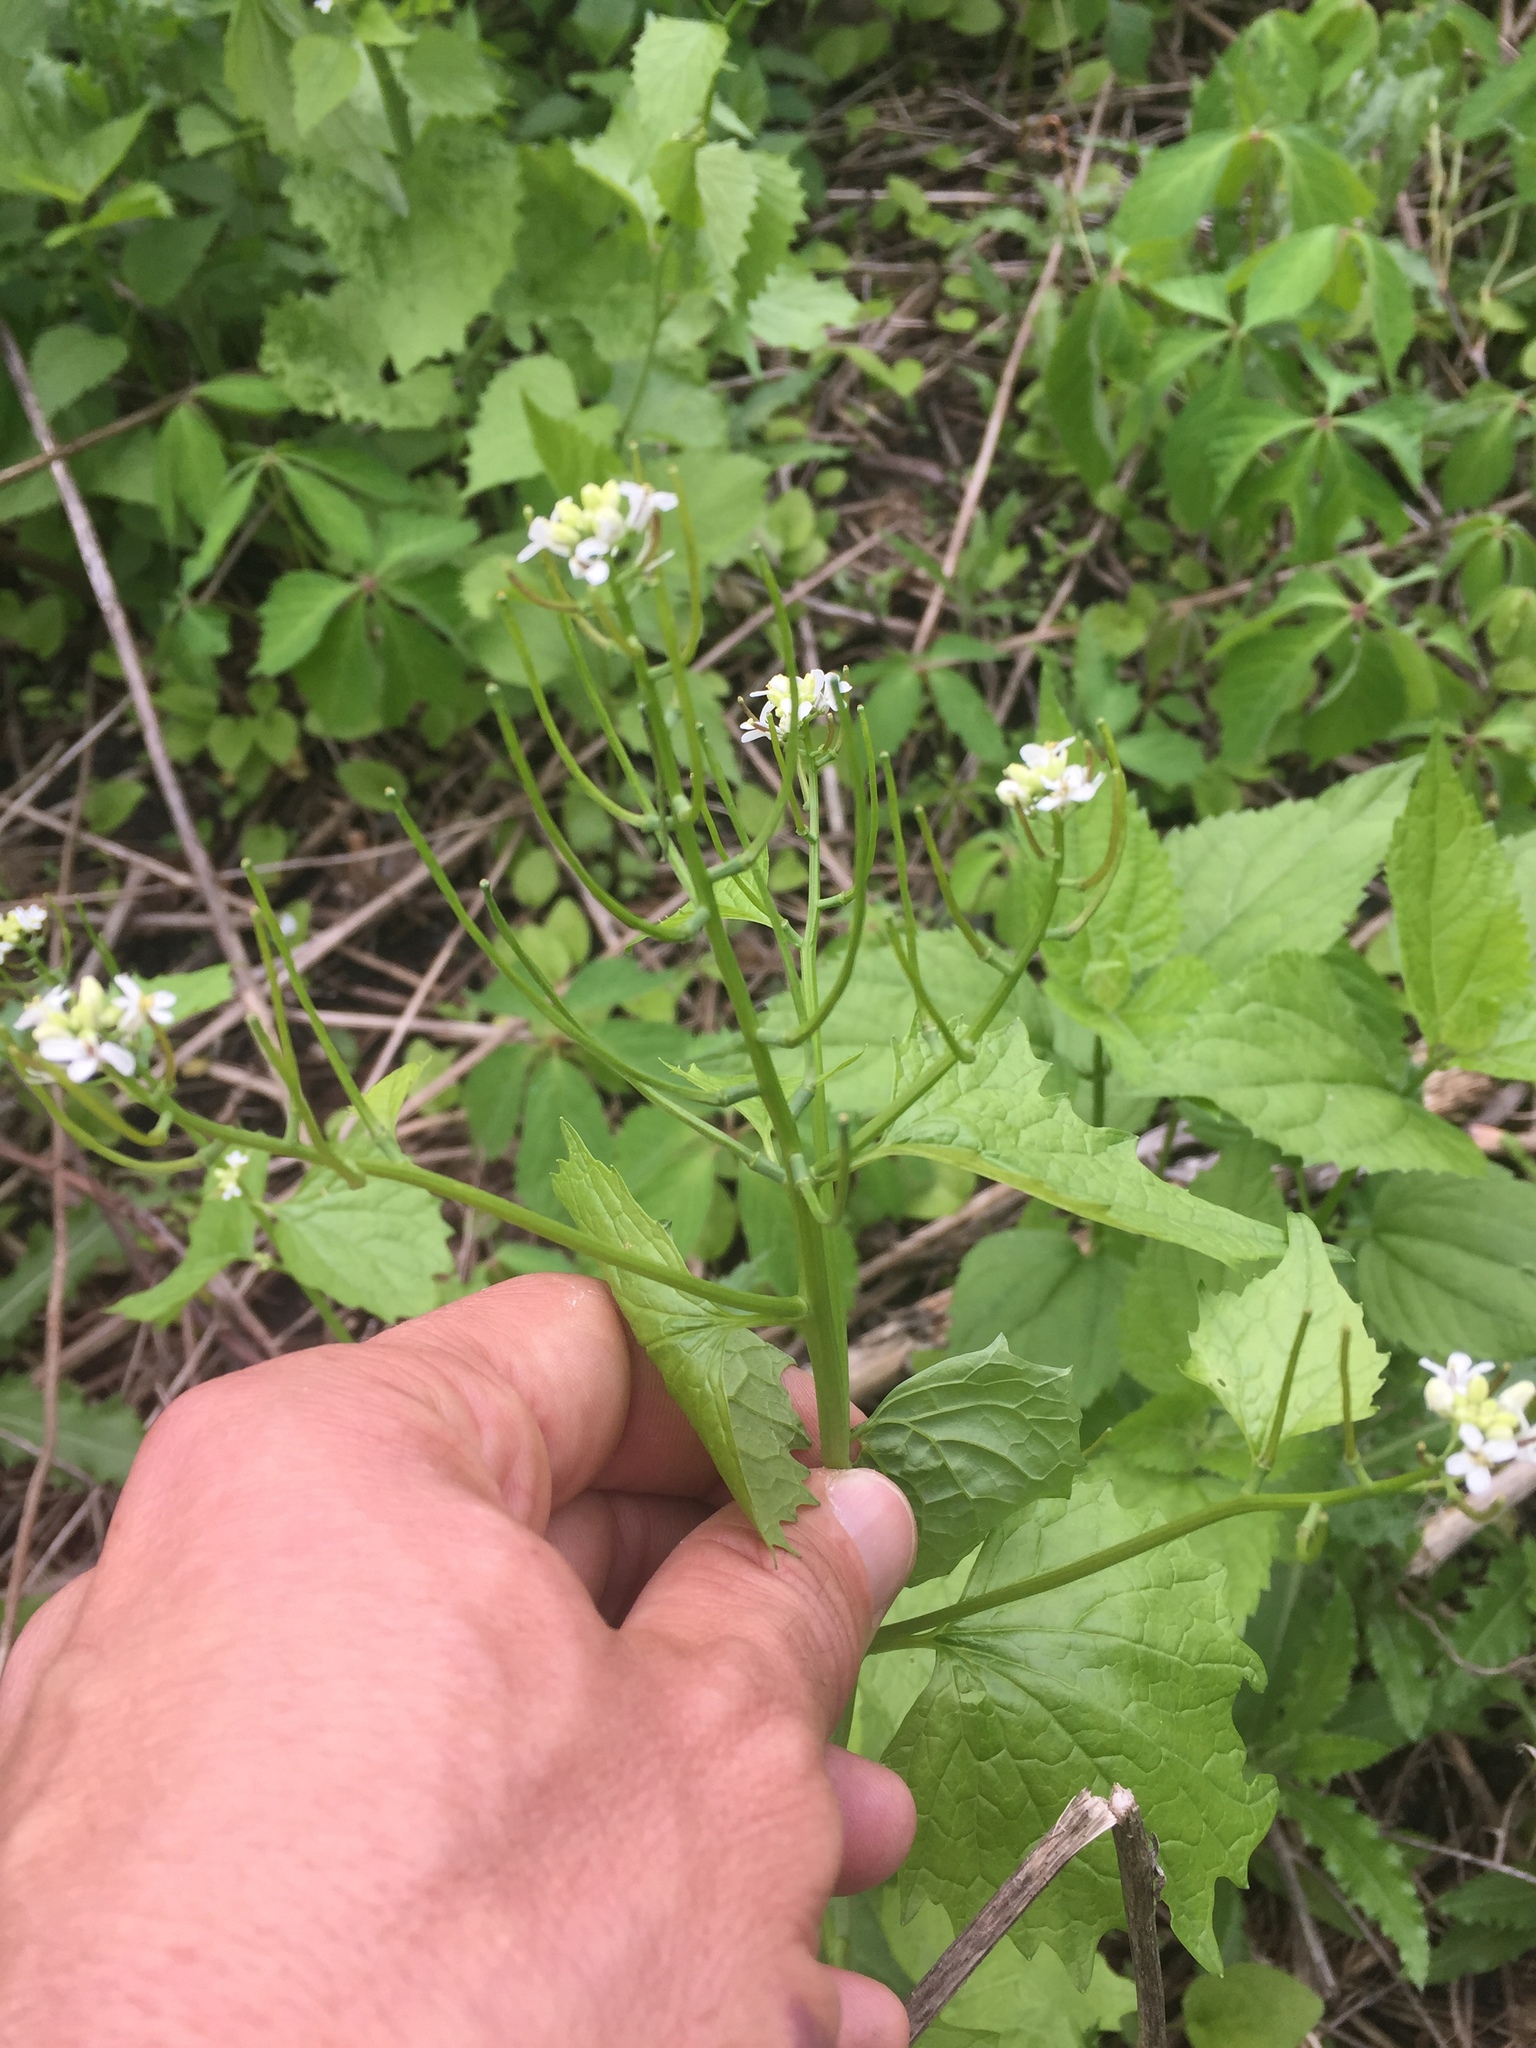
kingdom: Plantae
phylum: Tracheophyta
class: Magnoliopsida
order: Brassicales
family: Brassicaceae
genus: Alliaria
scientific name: Alliaria petiolata
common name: Garlic mustard
